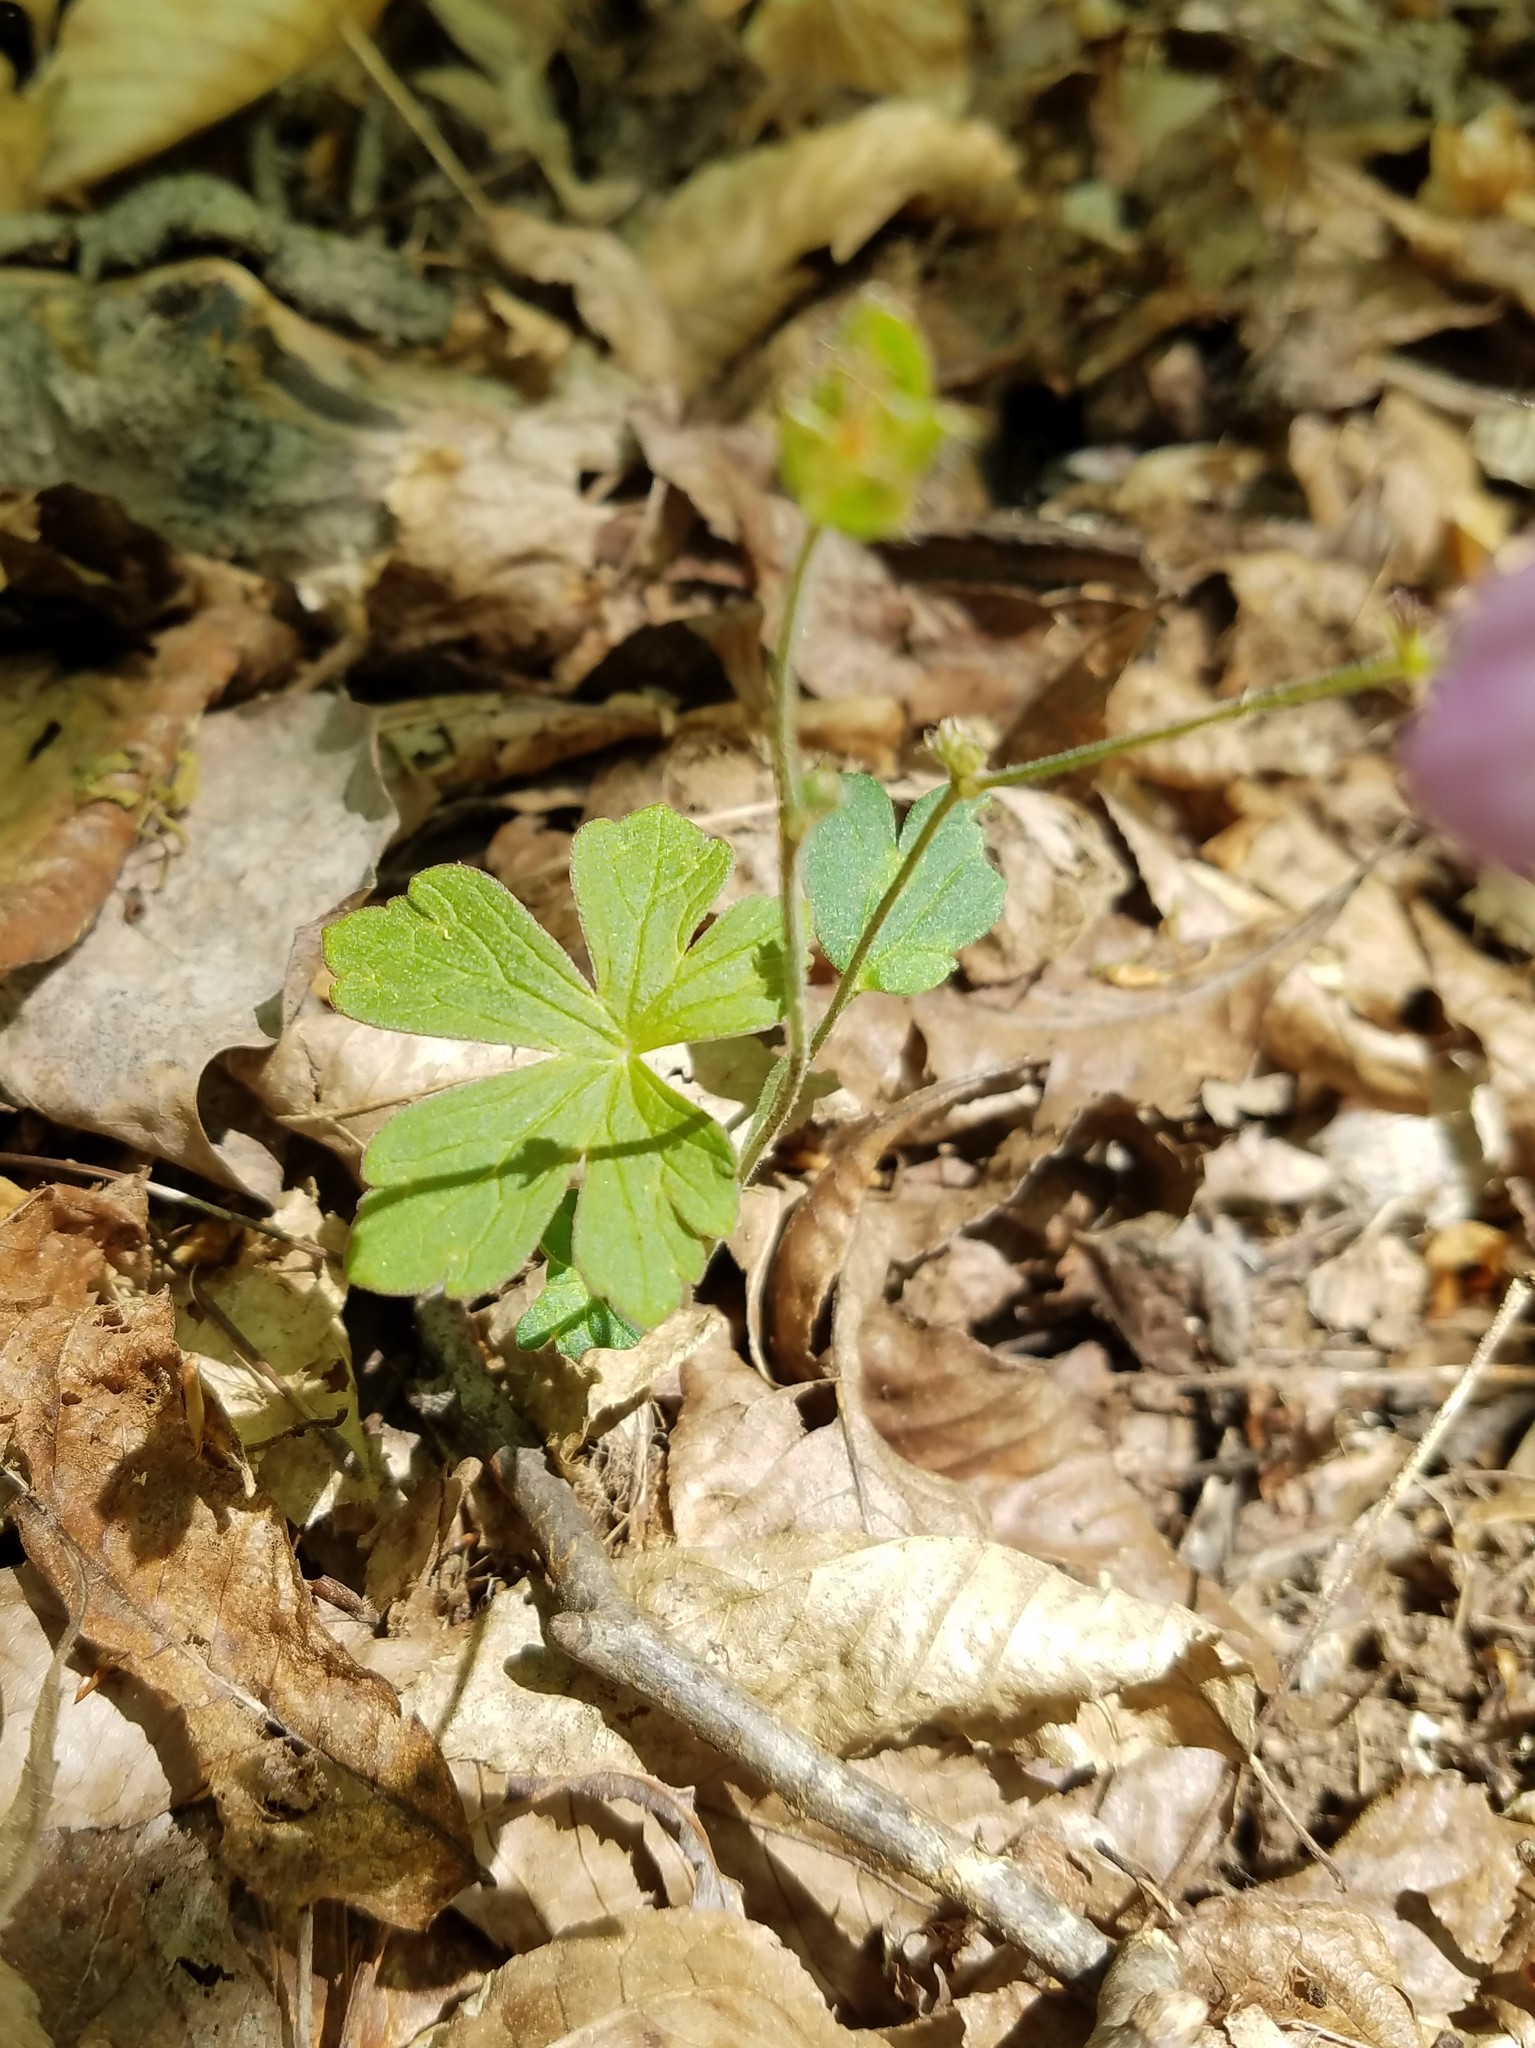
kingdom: Plantae
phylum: Tracheophyta
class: Magnoliopsida
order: Geraniales
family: Geraniaceae
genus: Geranium
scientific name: Geranium maculatum
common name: Spotted geranium
